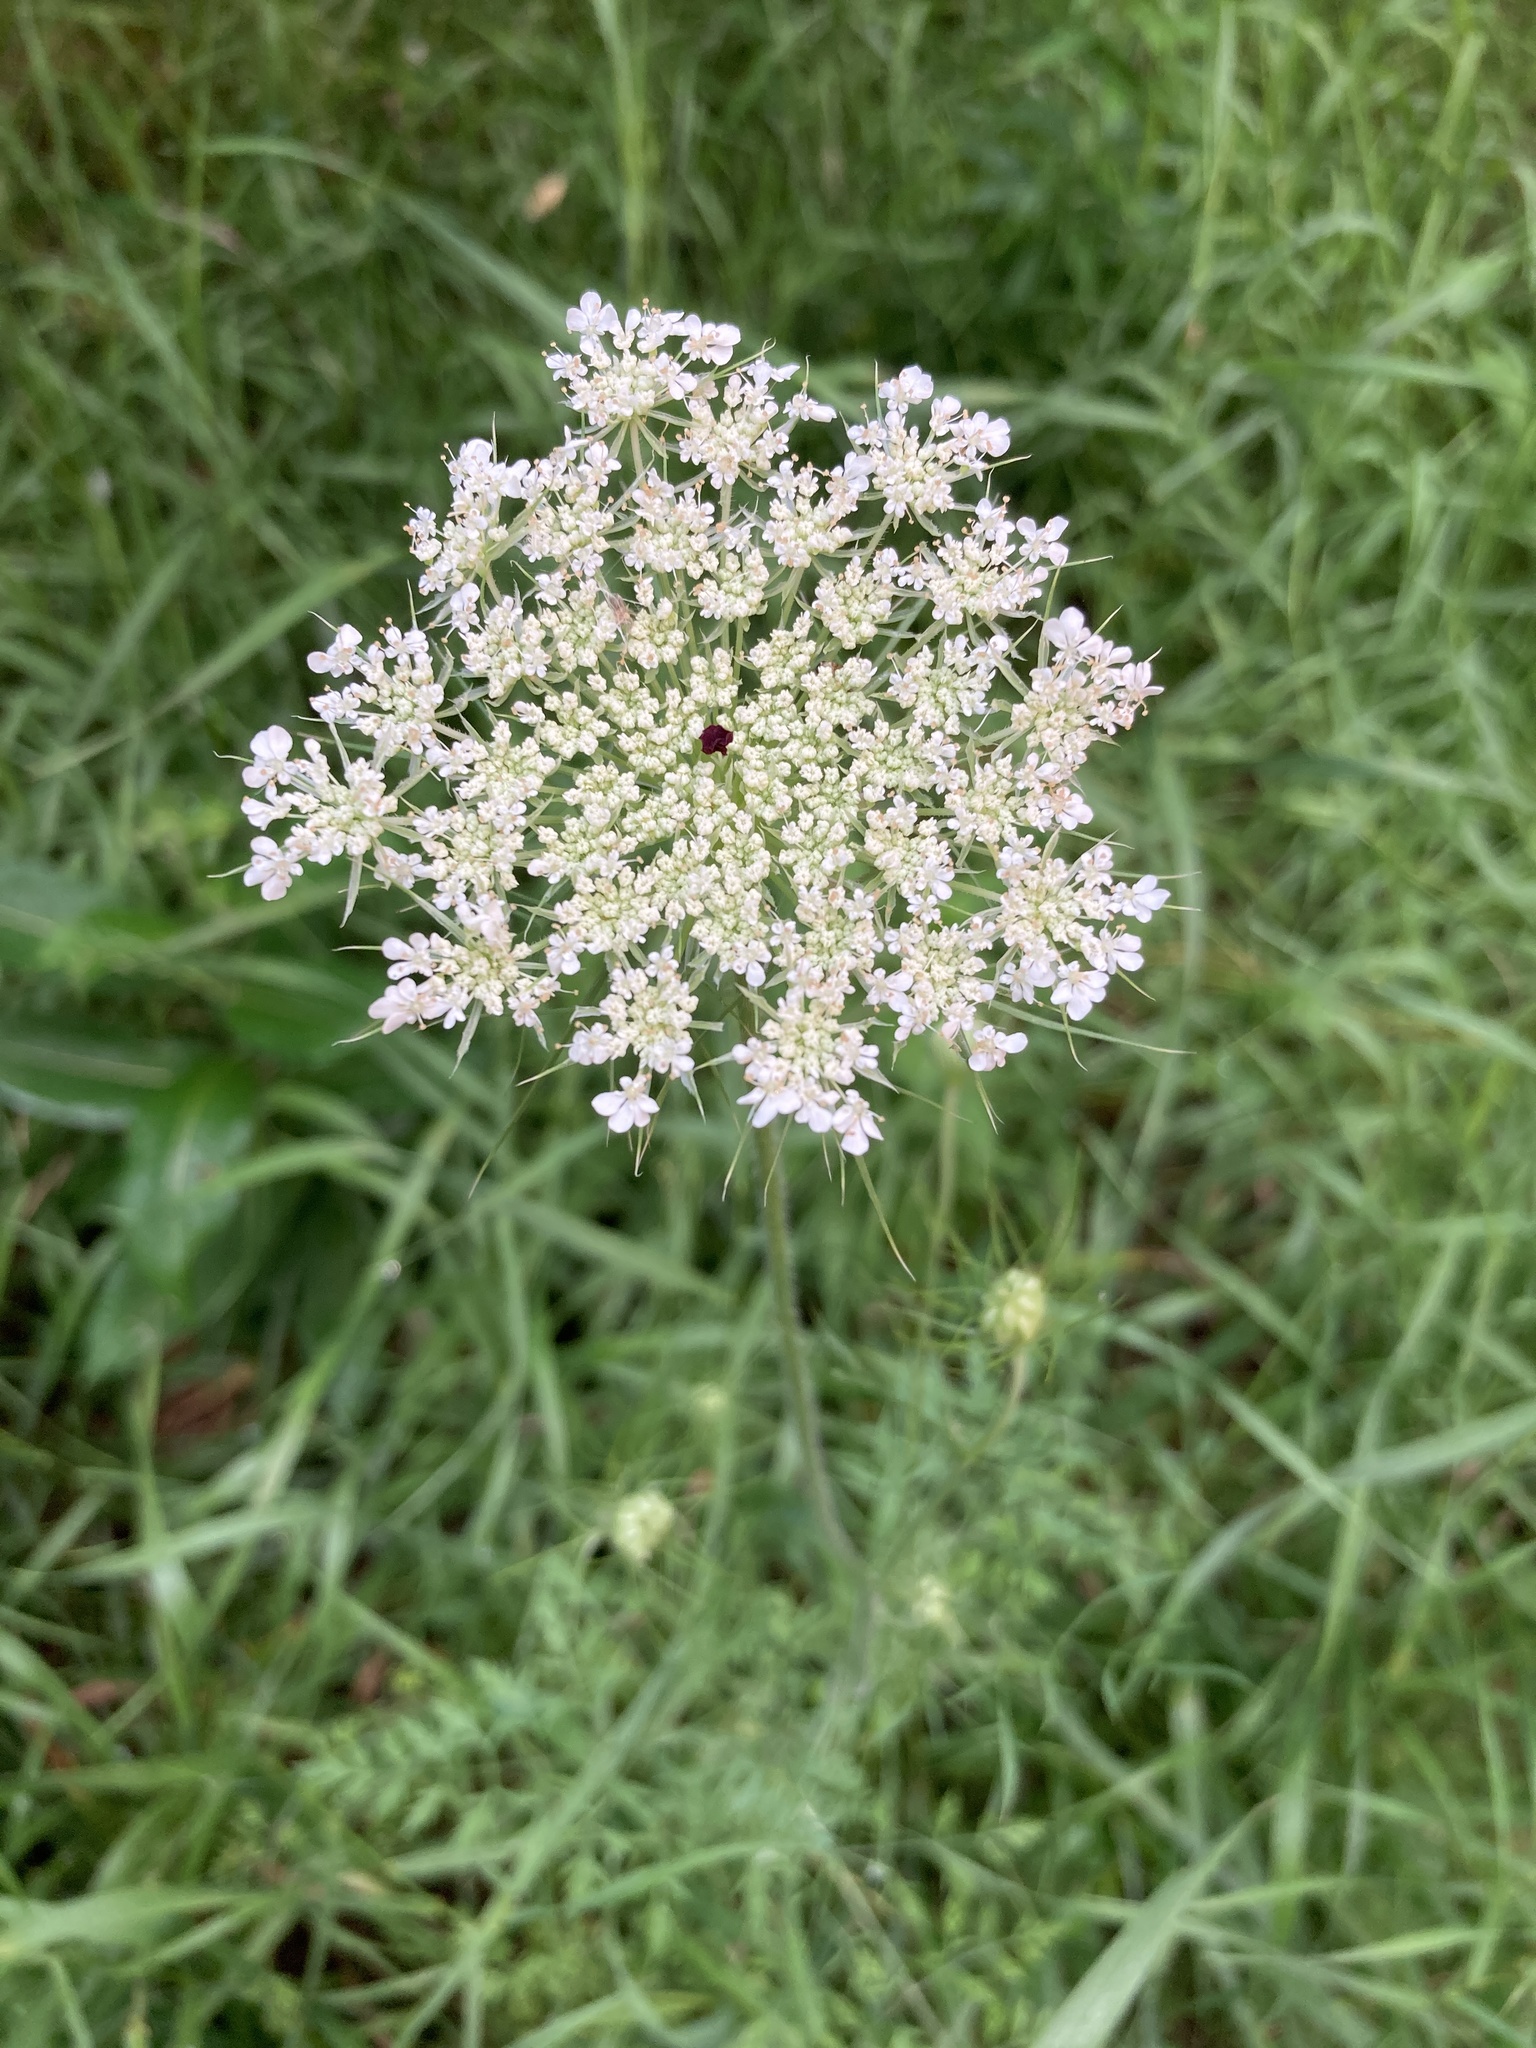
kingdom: Plantae
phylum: Tracheophyta
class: Magnoliopsida
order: Apiales
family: Apiaceae
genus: Daucus
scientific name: Daucus carota
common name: Wild carrot
